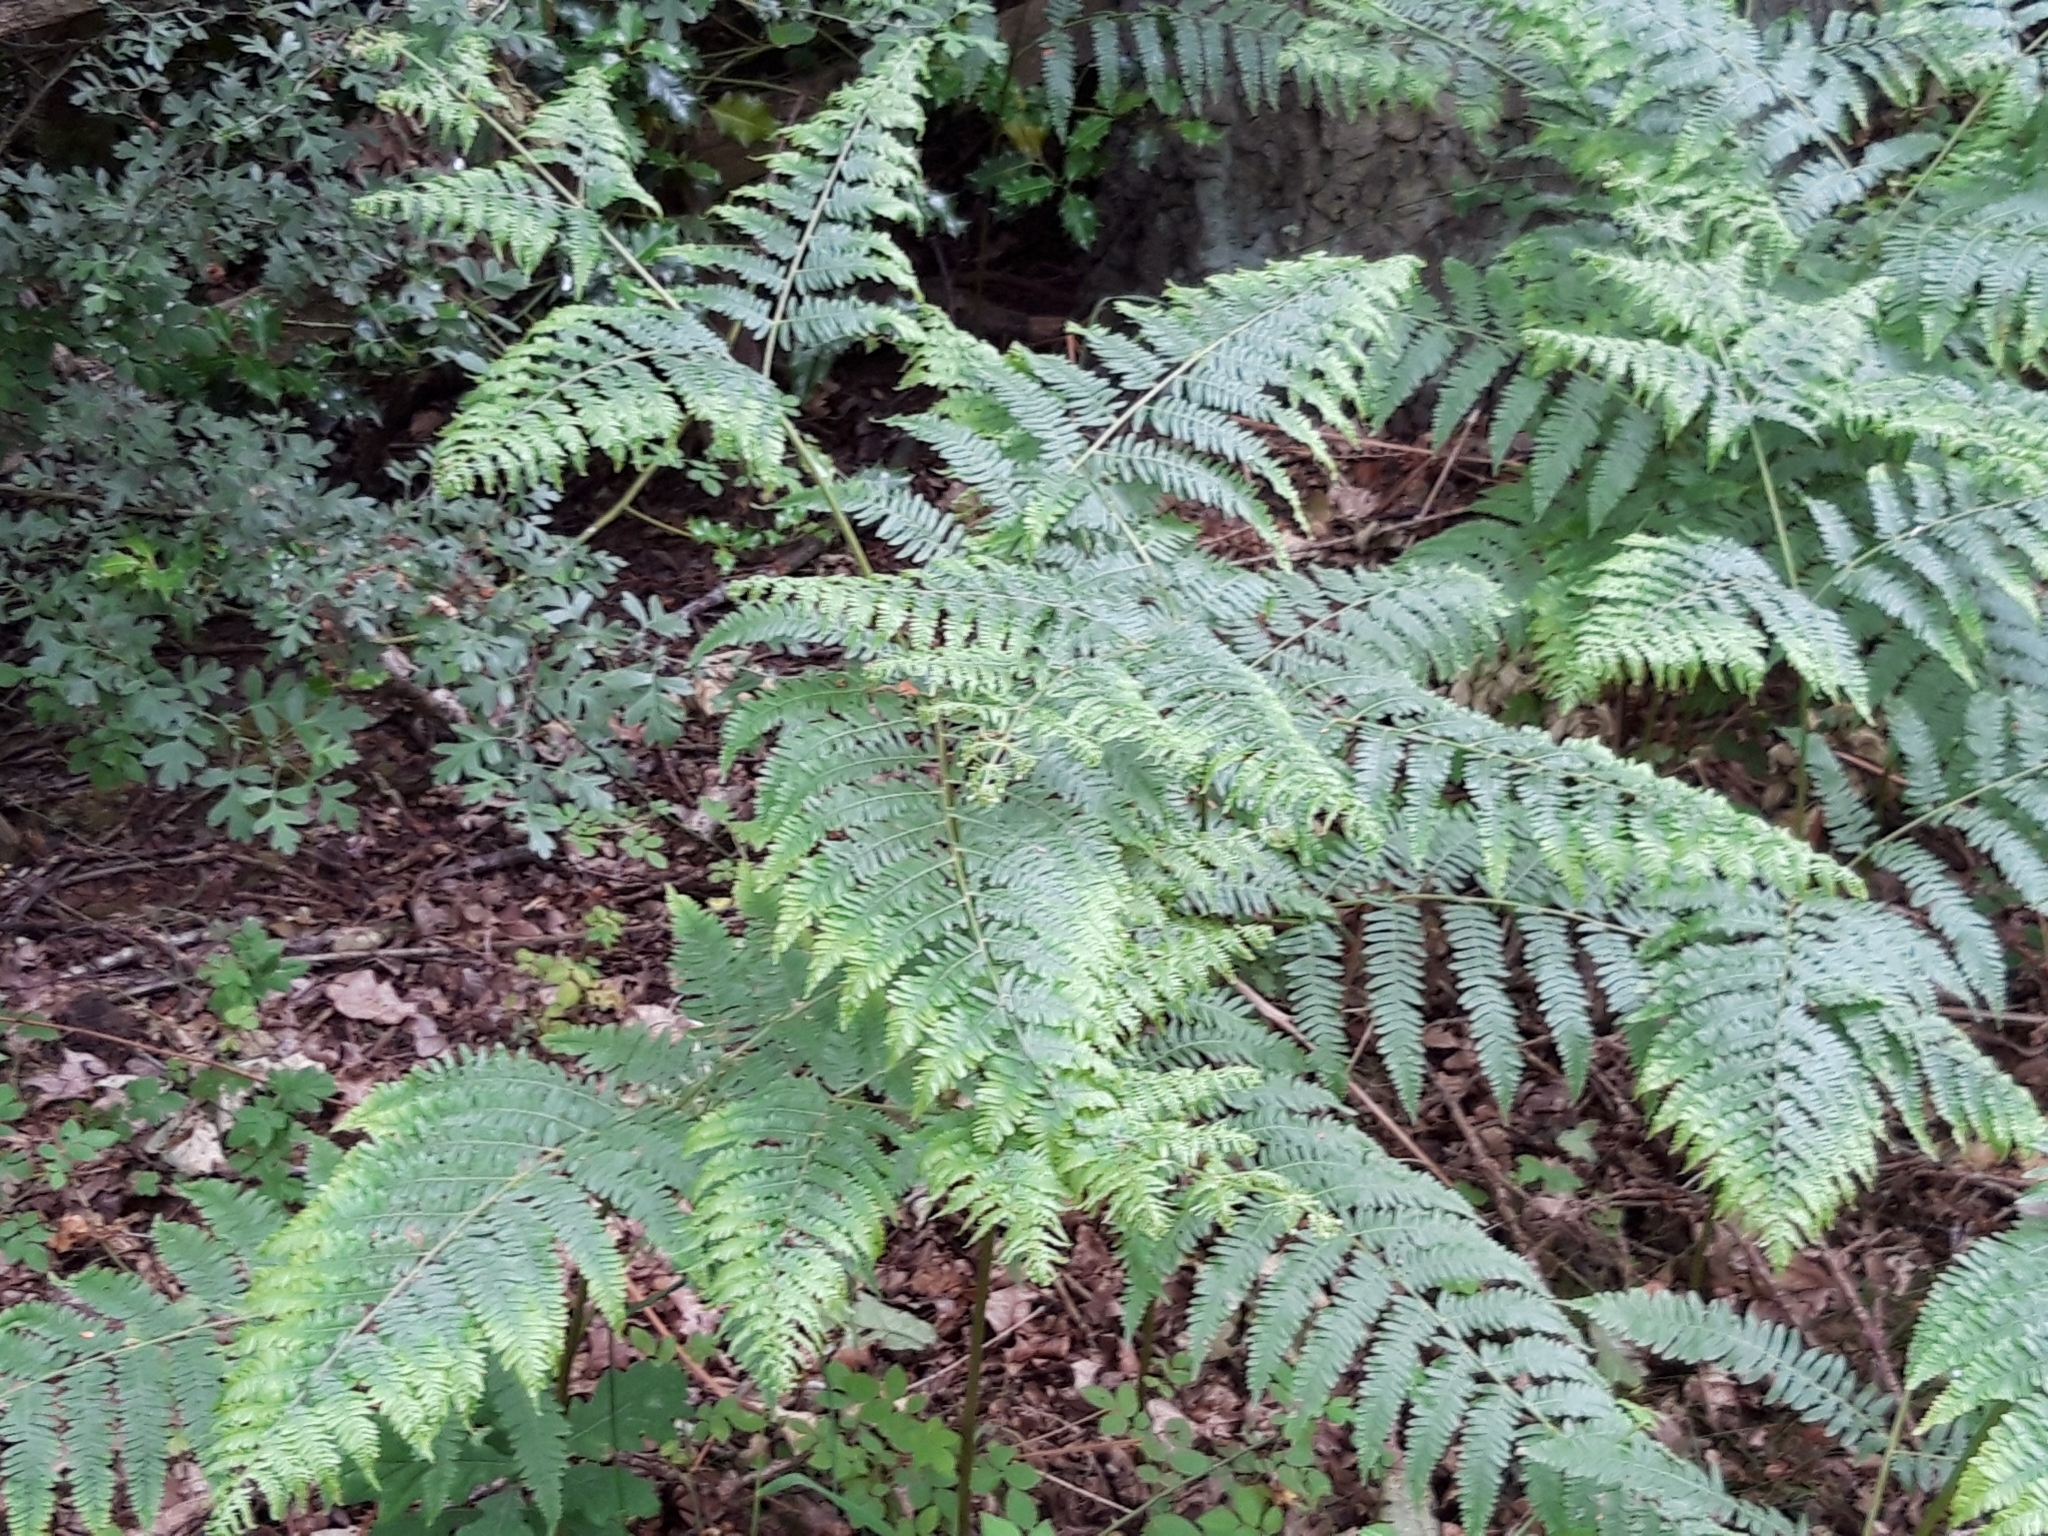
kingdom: Plantae
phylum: Tracheophyta
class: Polypodiopsida
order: Polypodiales
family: Dennstaedtiaceae
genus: Pteridium
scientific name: Pteridium aquilinum
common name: Bracken
